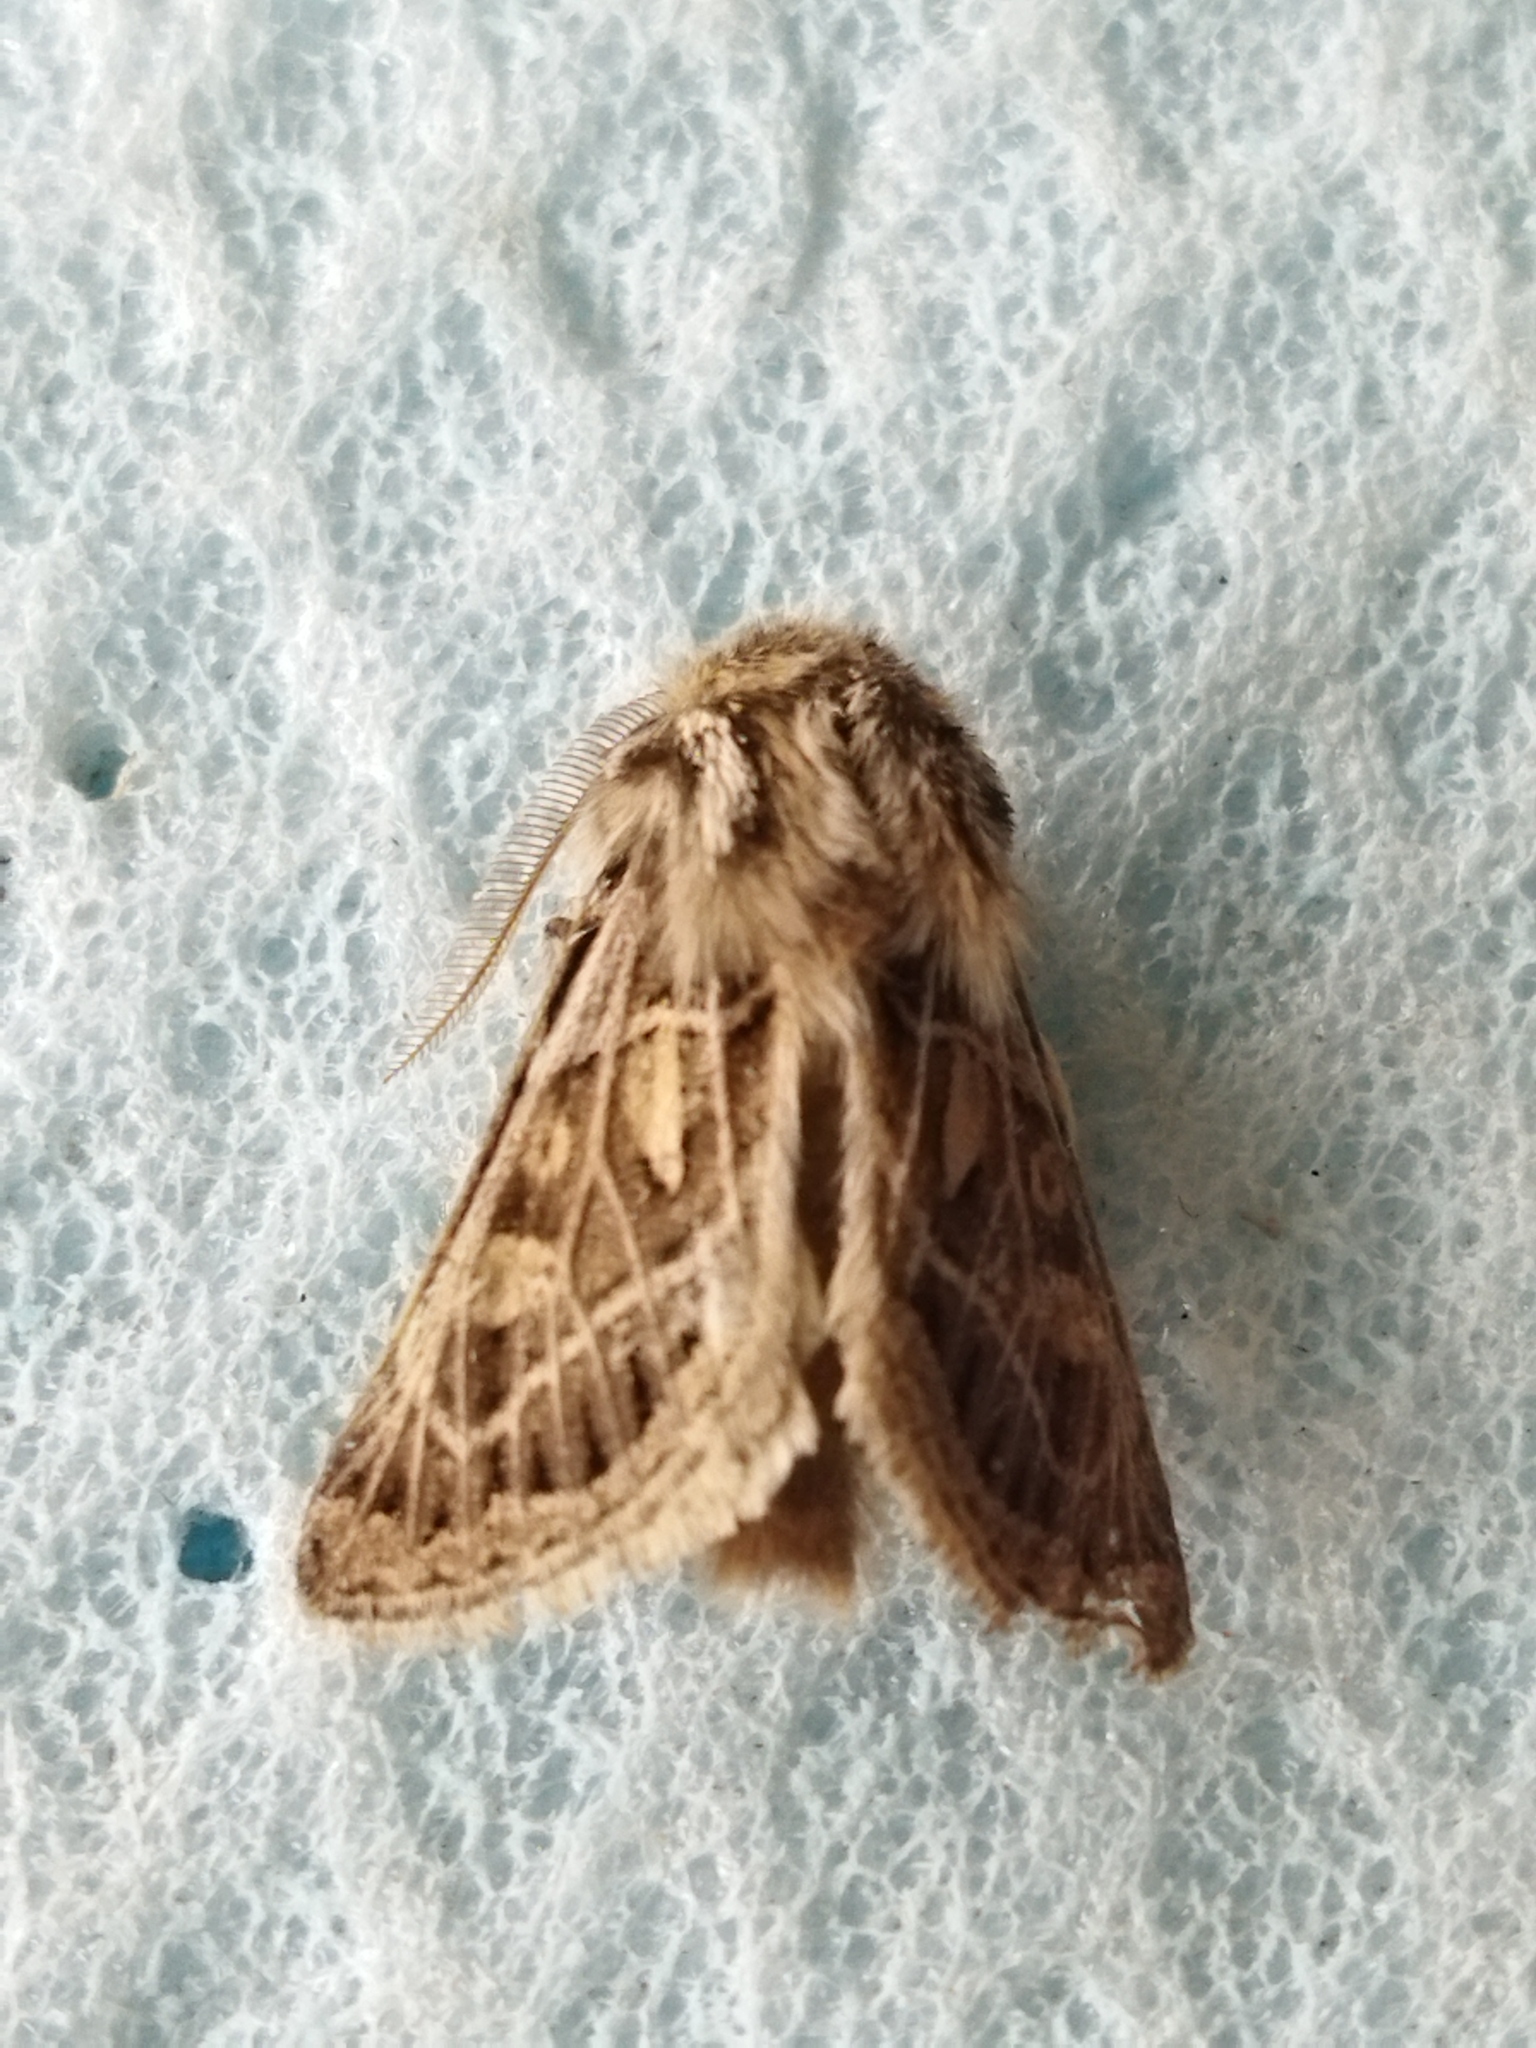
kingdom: Animalia
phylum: Arthropoda
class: Insecta
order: Lepidoptera
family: Noctuidae
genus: Ulochlaena
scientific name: Ulochlaena hirta
